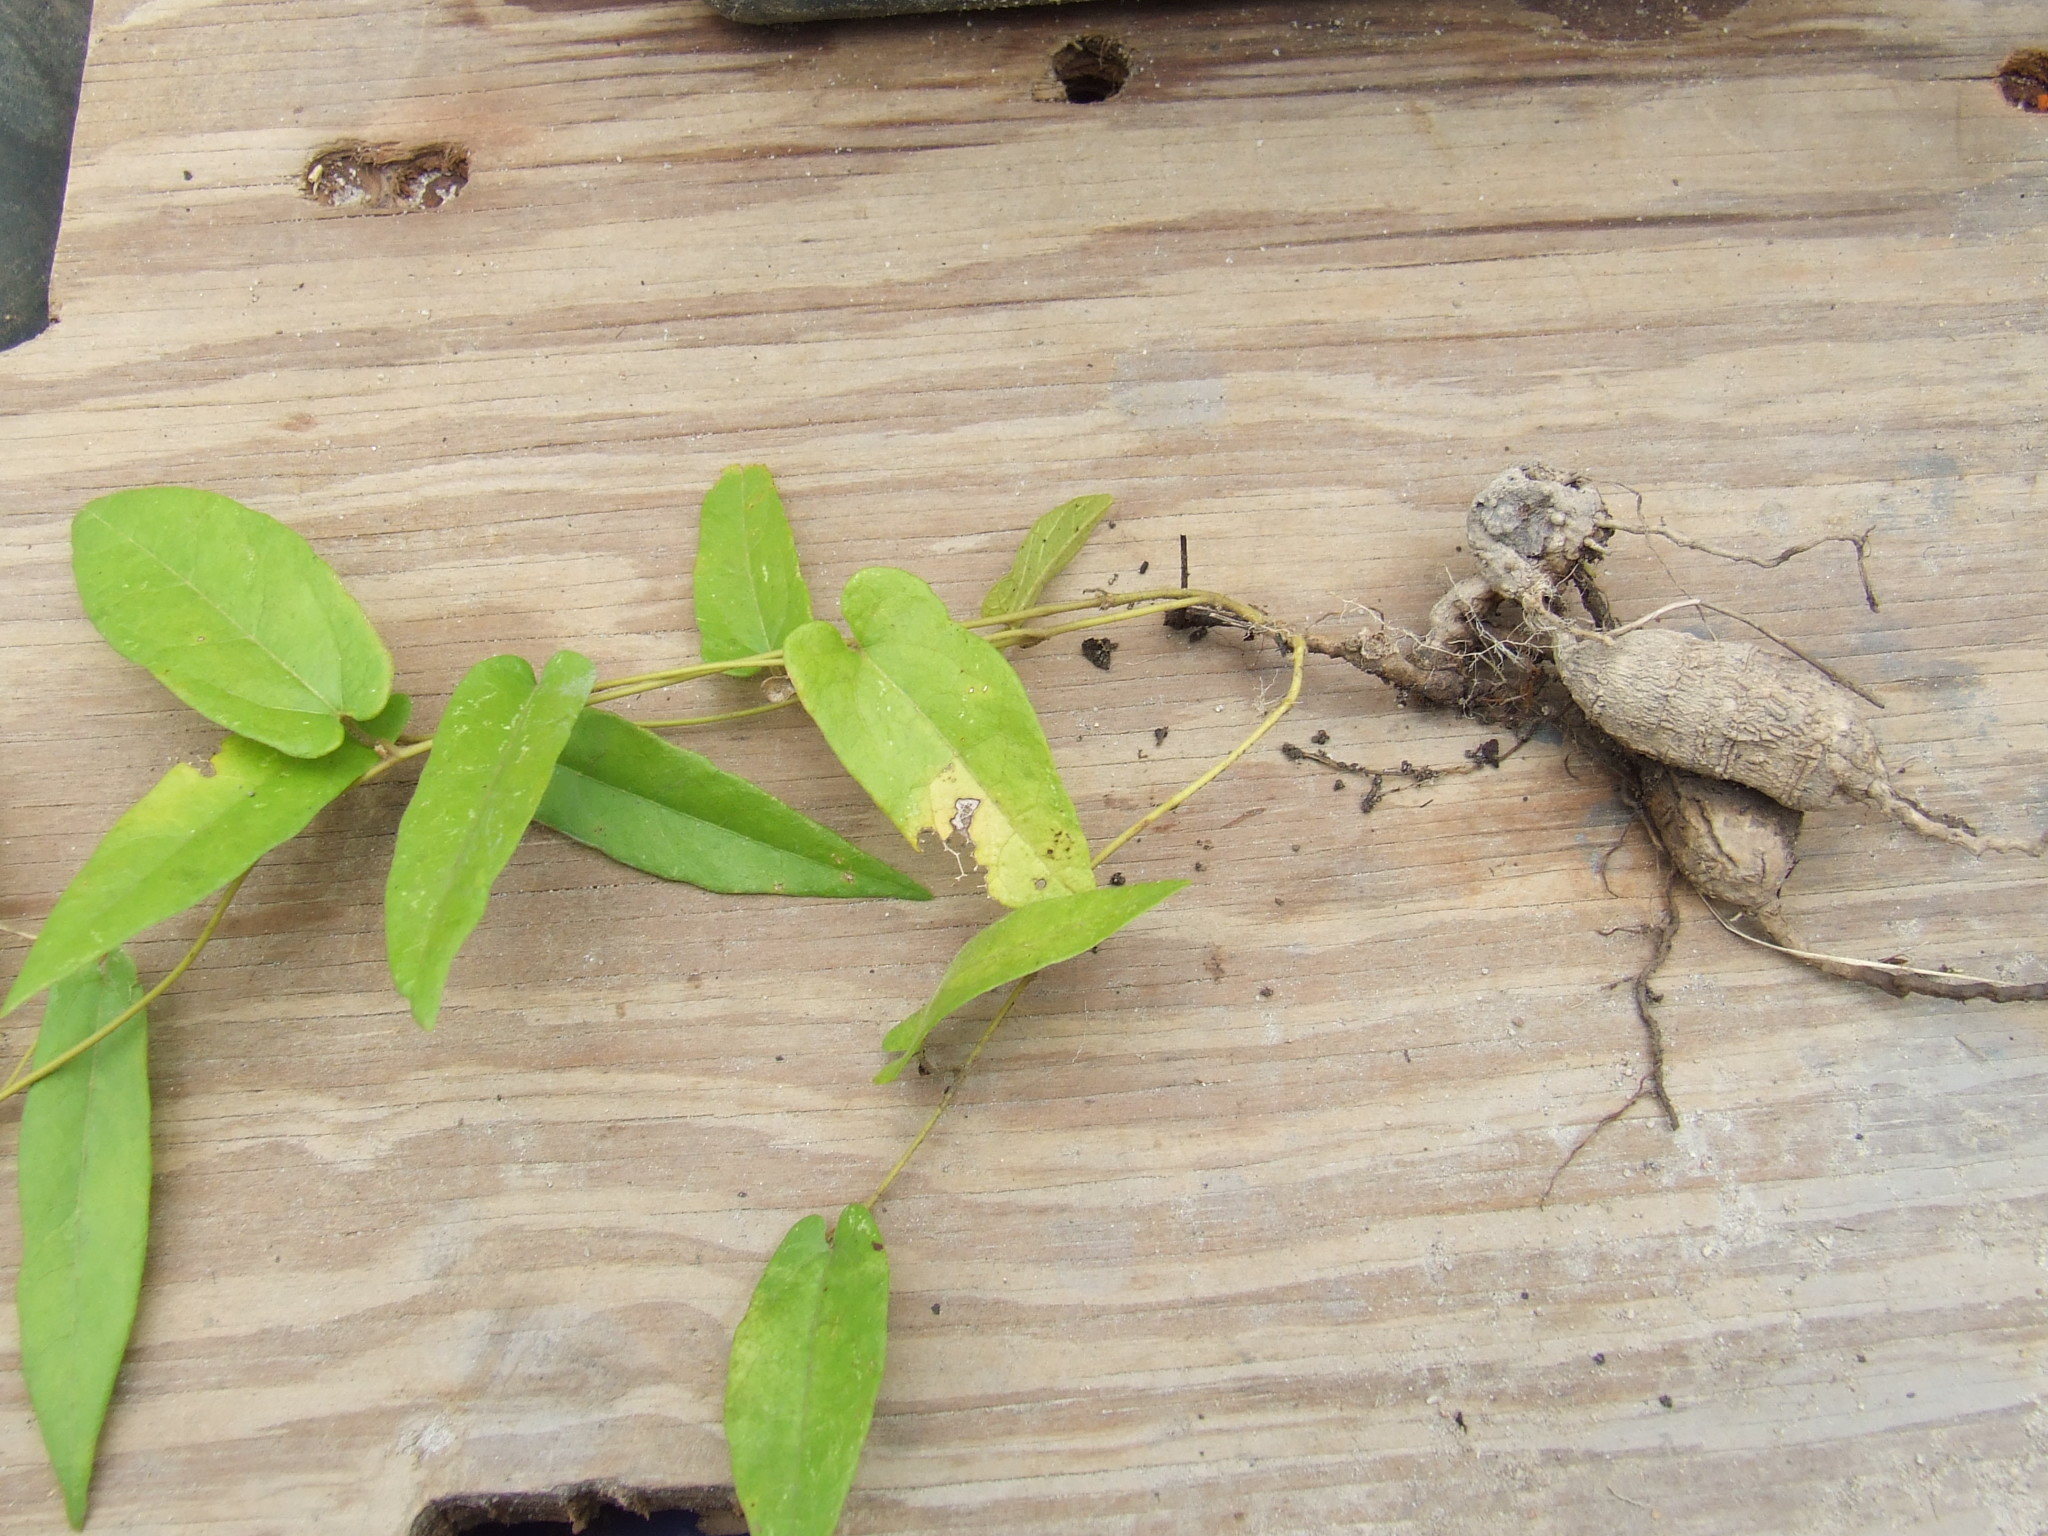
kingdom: Plantae
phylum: Tracheophyta
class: Magnoliopsida
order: Piperales
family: Aristolochiaceae
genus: Aristolochia
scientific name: Aristolochia ornithopterae
